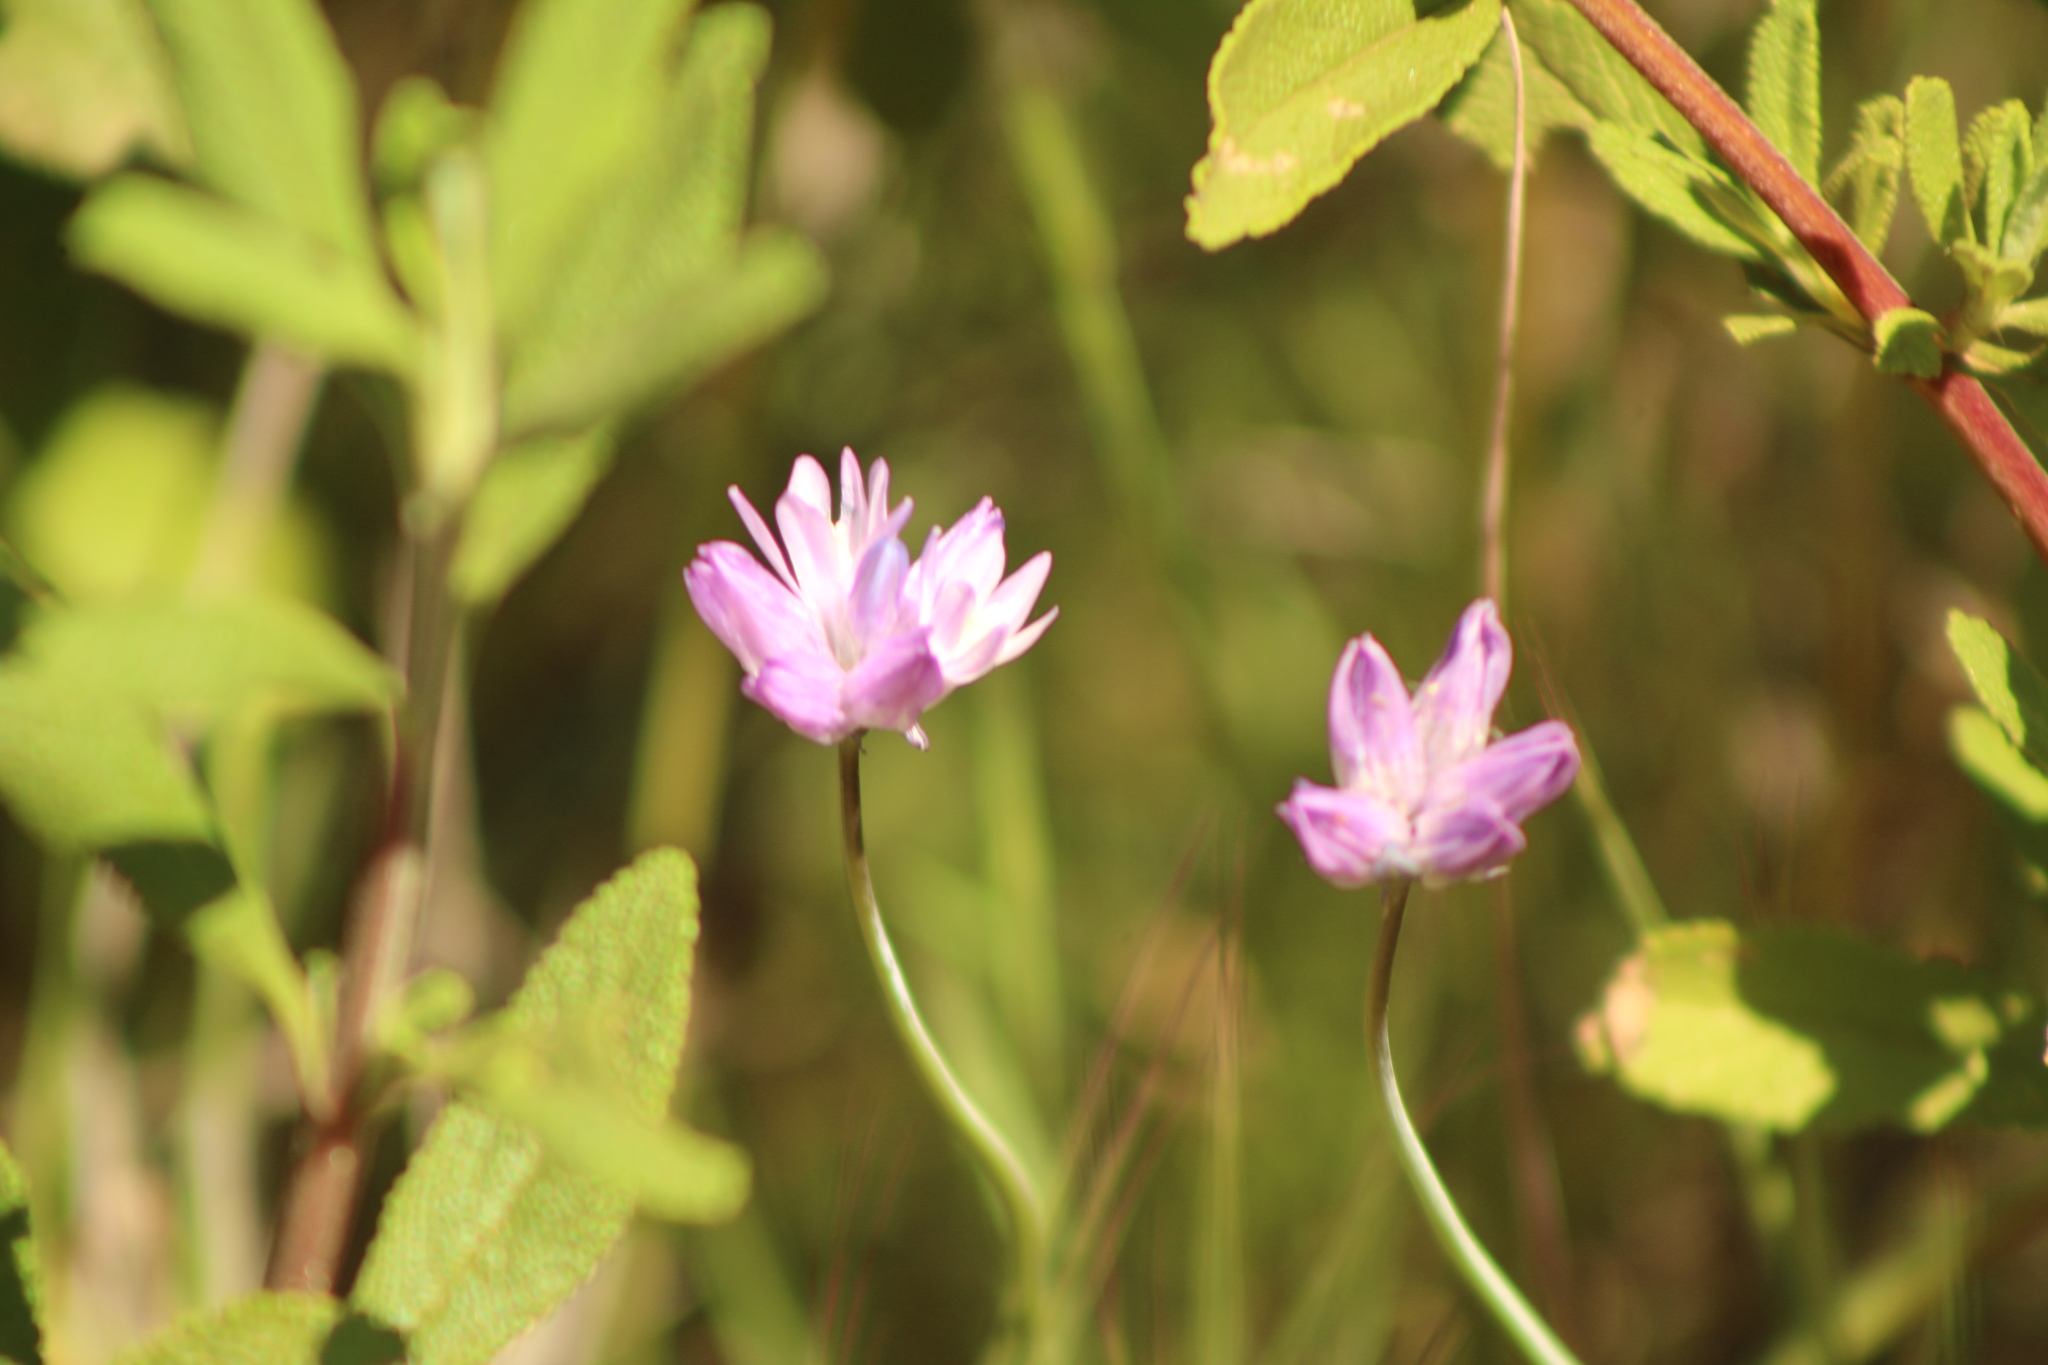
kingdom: Plantae
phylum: Tracheophyta
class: Liliopsida
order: Asparagales
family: Asparagaceae
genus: Dipterostemon
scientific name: Dipterostemon capitatus
